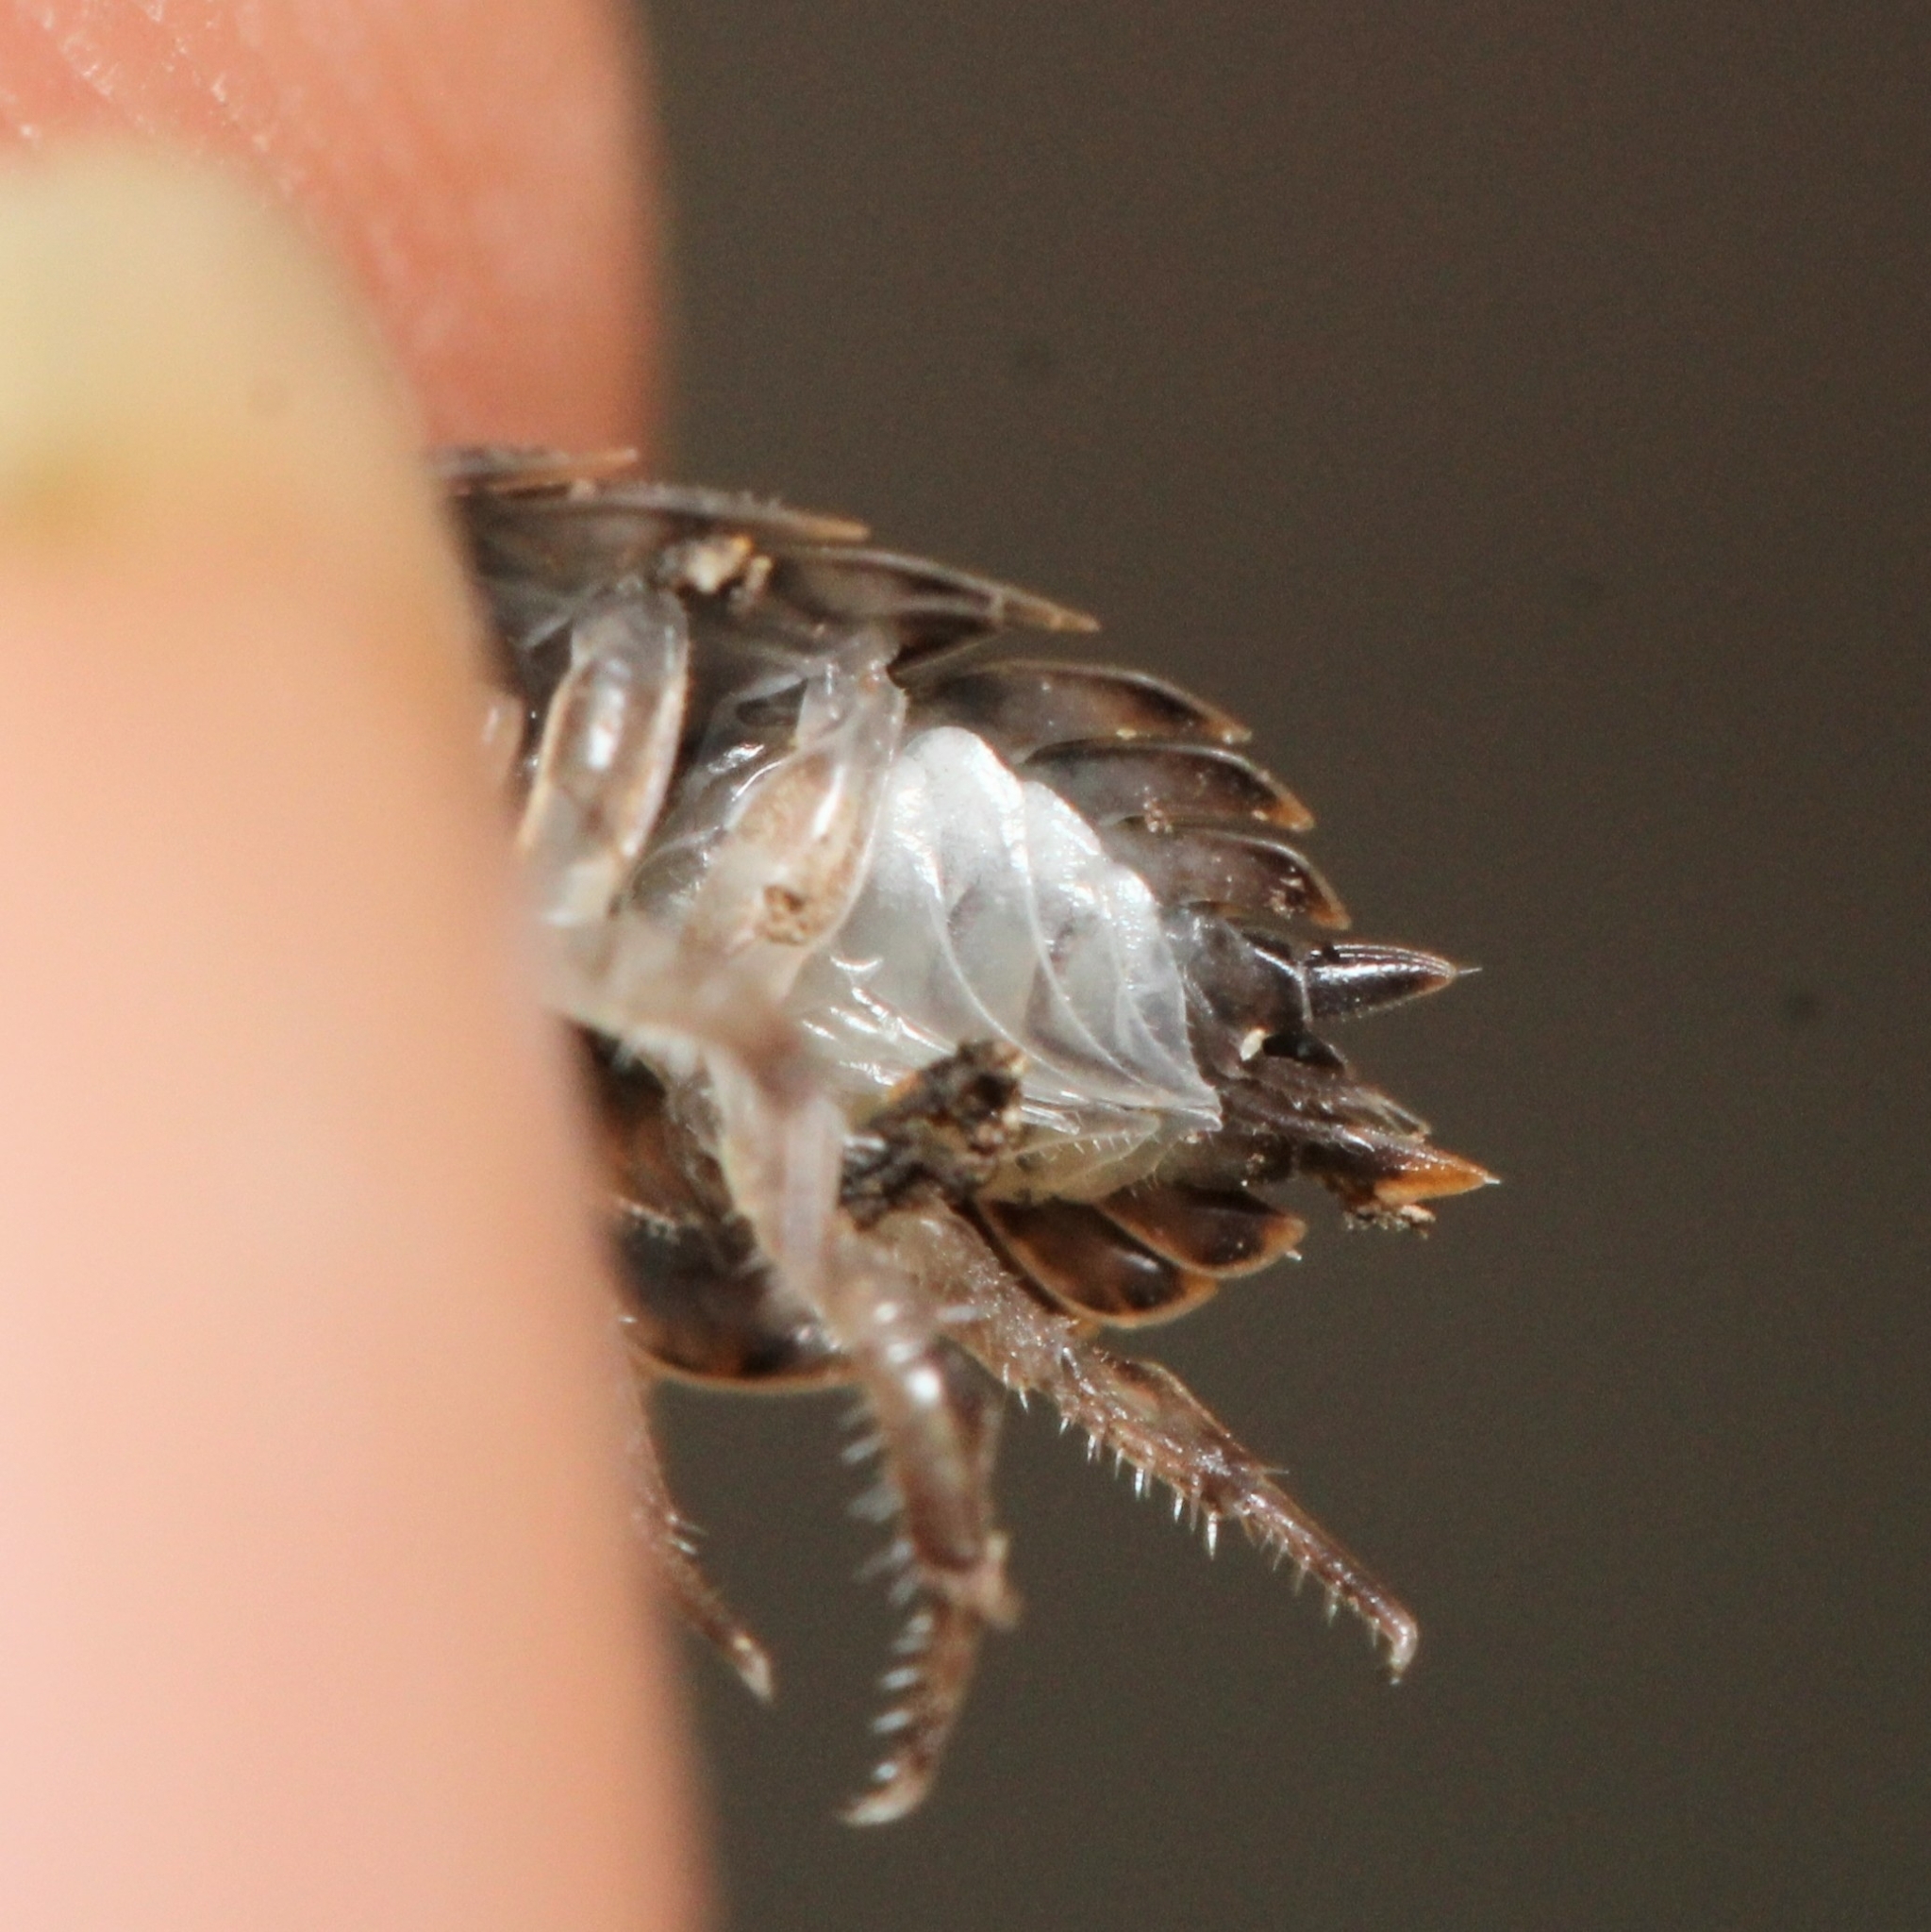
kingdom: Animalia
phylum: Arthropoda
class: Malacostraca
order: Isopoda
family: Trachelipodidae
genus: Trachelipus
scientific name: Trachelipus rathkii
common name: Isopod
